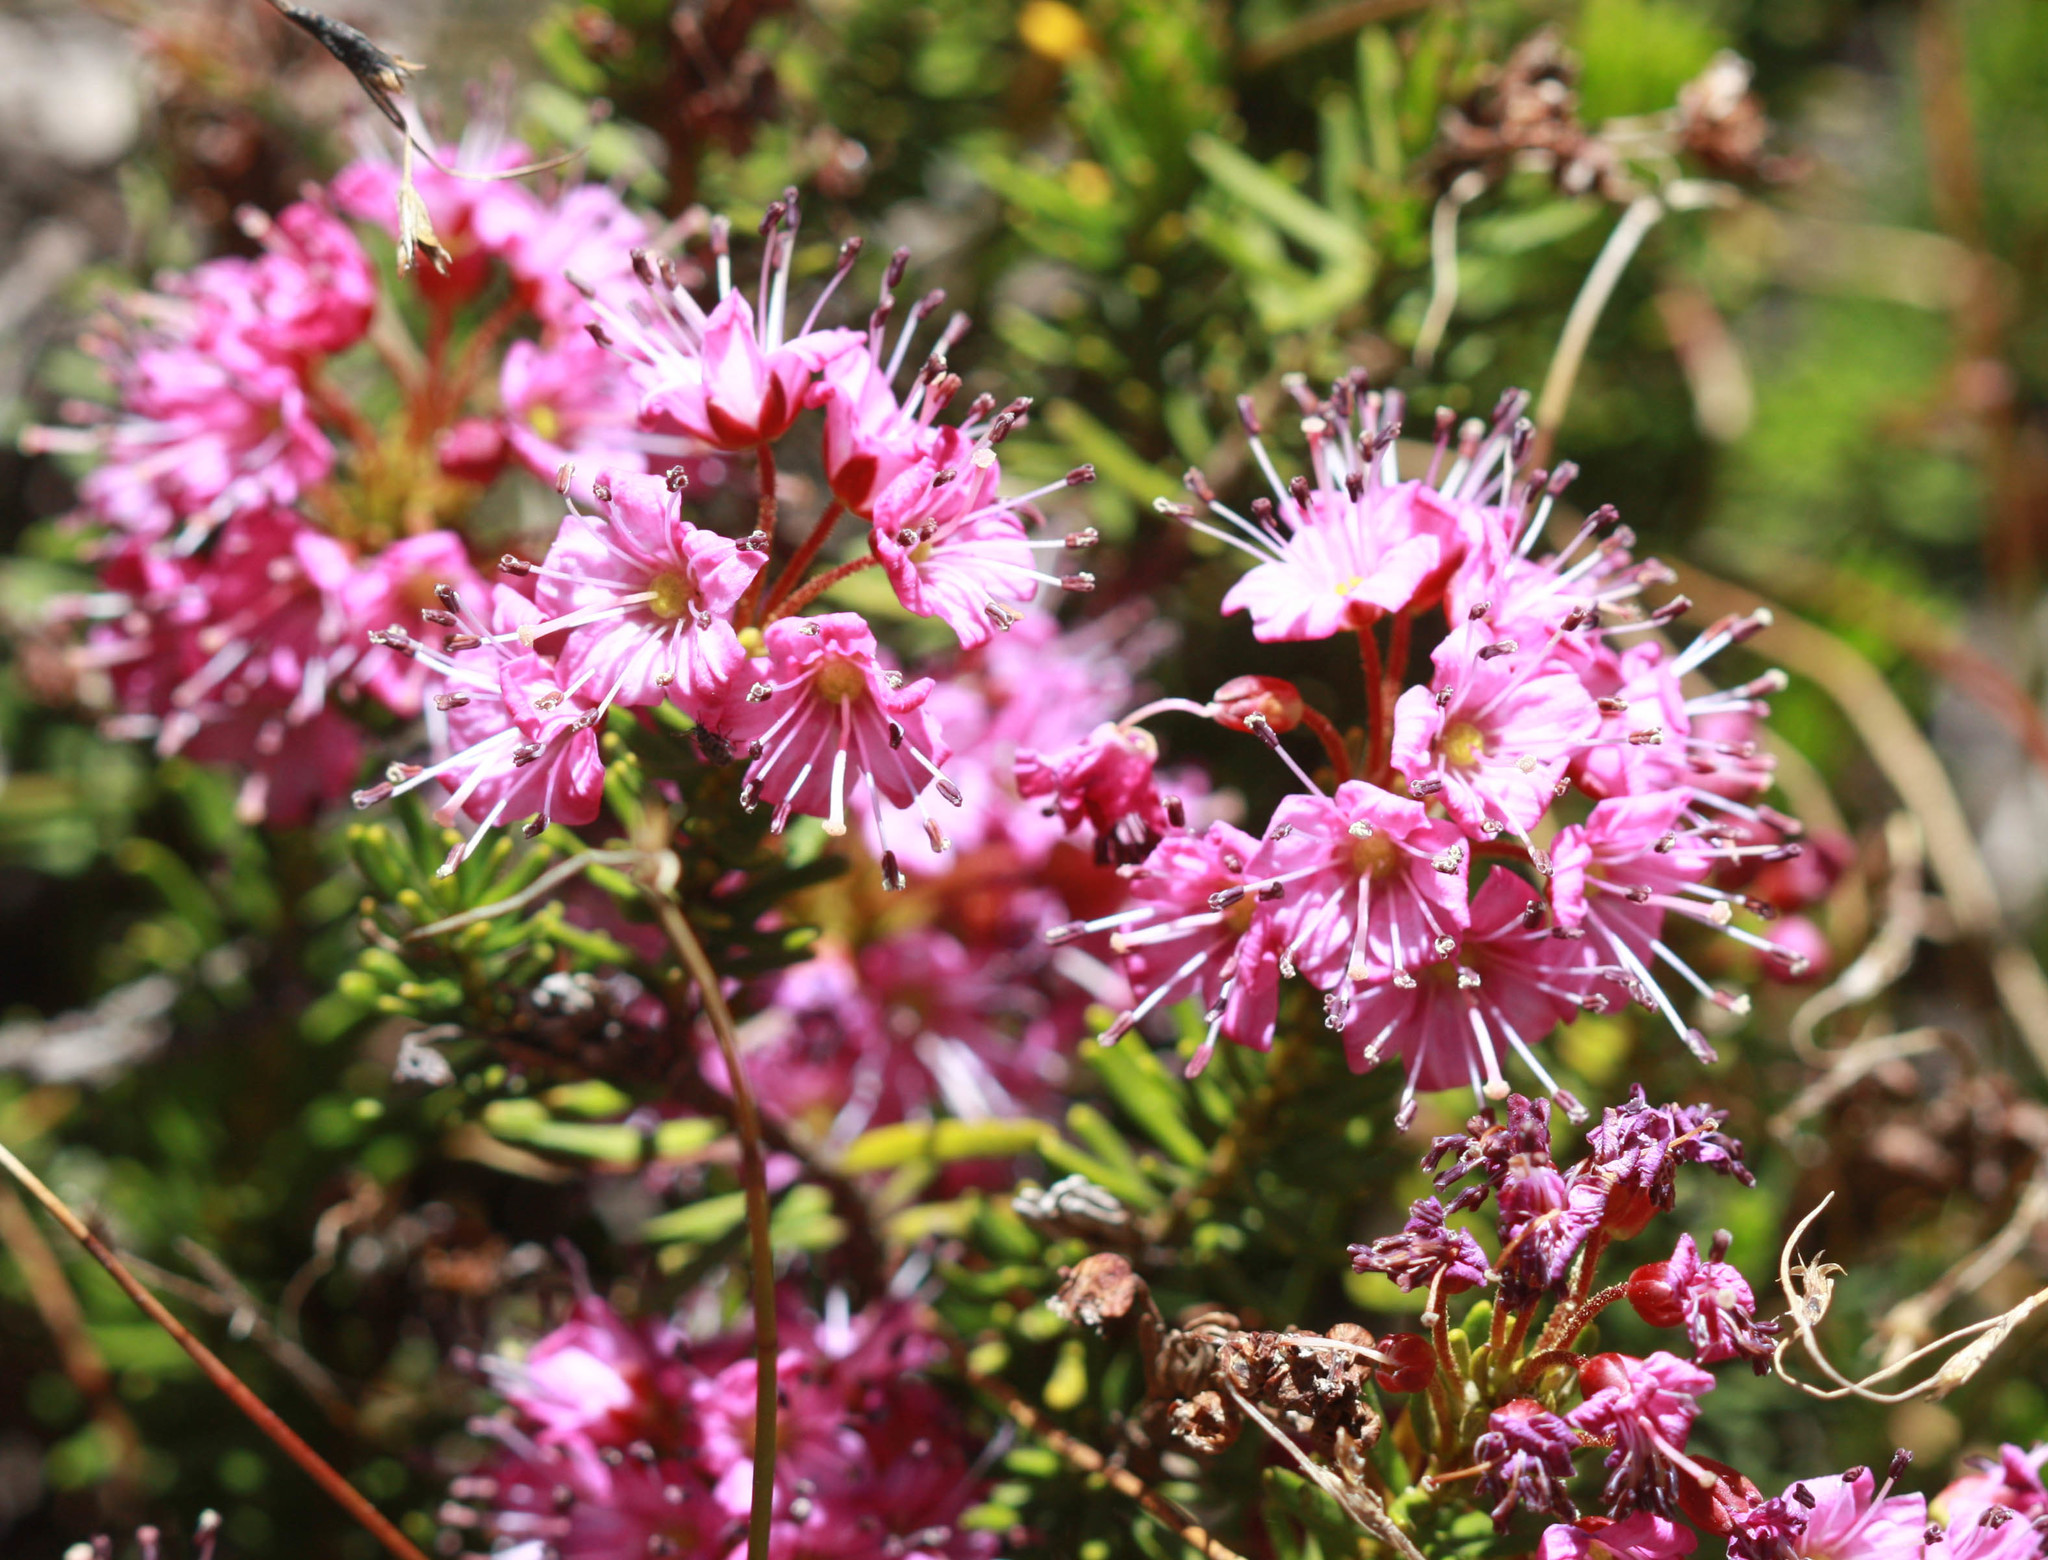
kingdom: Plantae
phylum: Tracheophyta
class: Magnoliopsida
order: Ericales
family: Ericaceae
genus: Phyllodoce
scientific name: Phyllodoce breweri
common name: Brewer's mountain-heather
